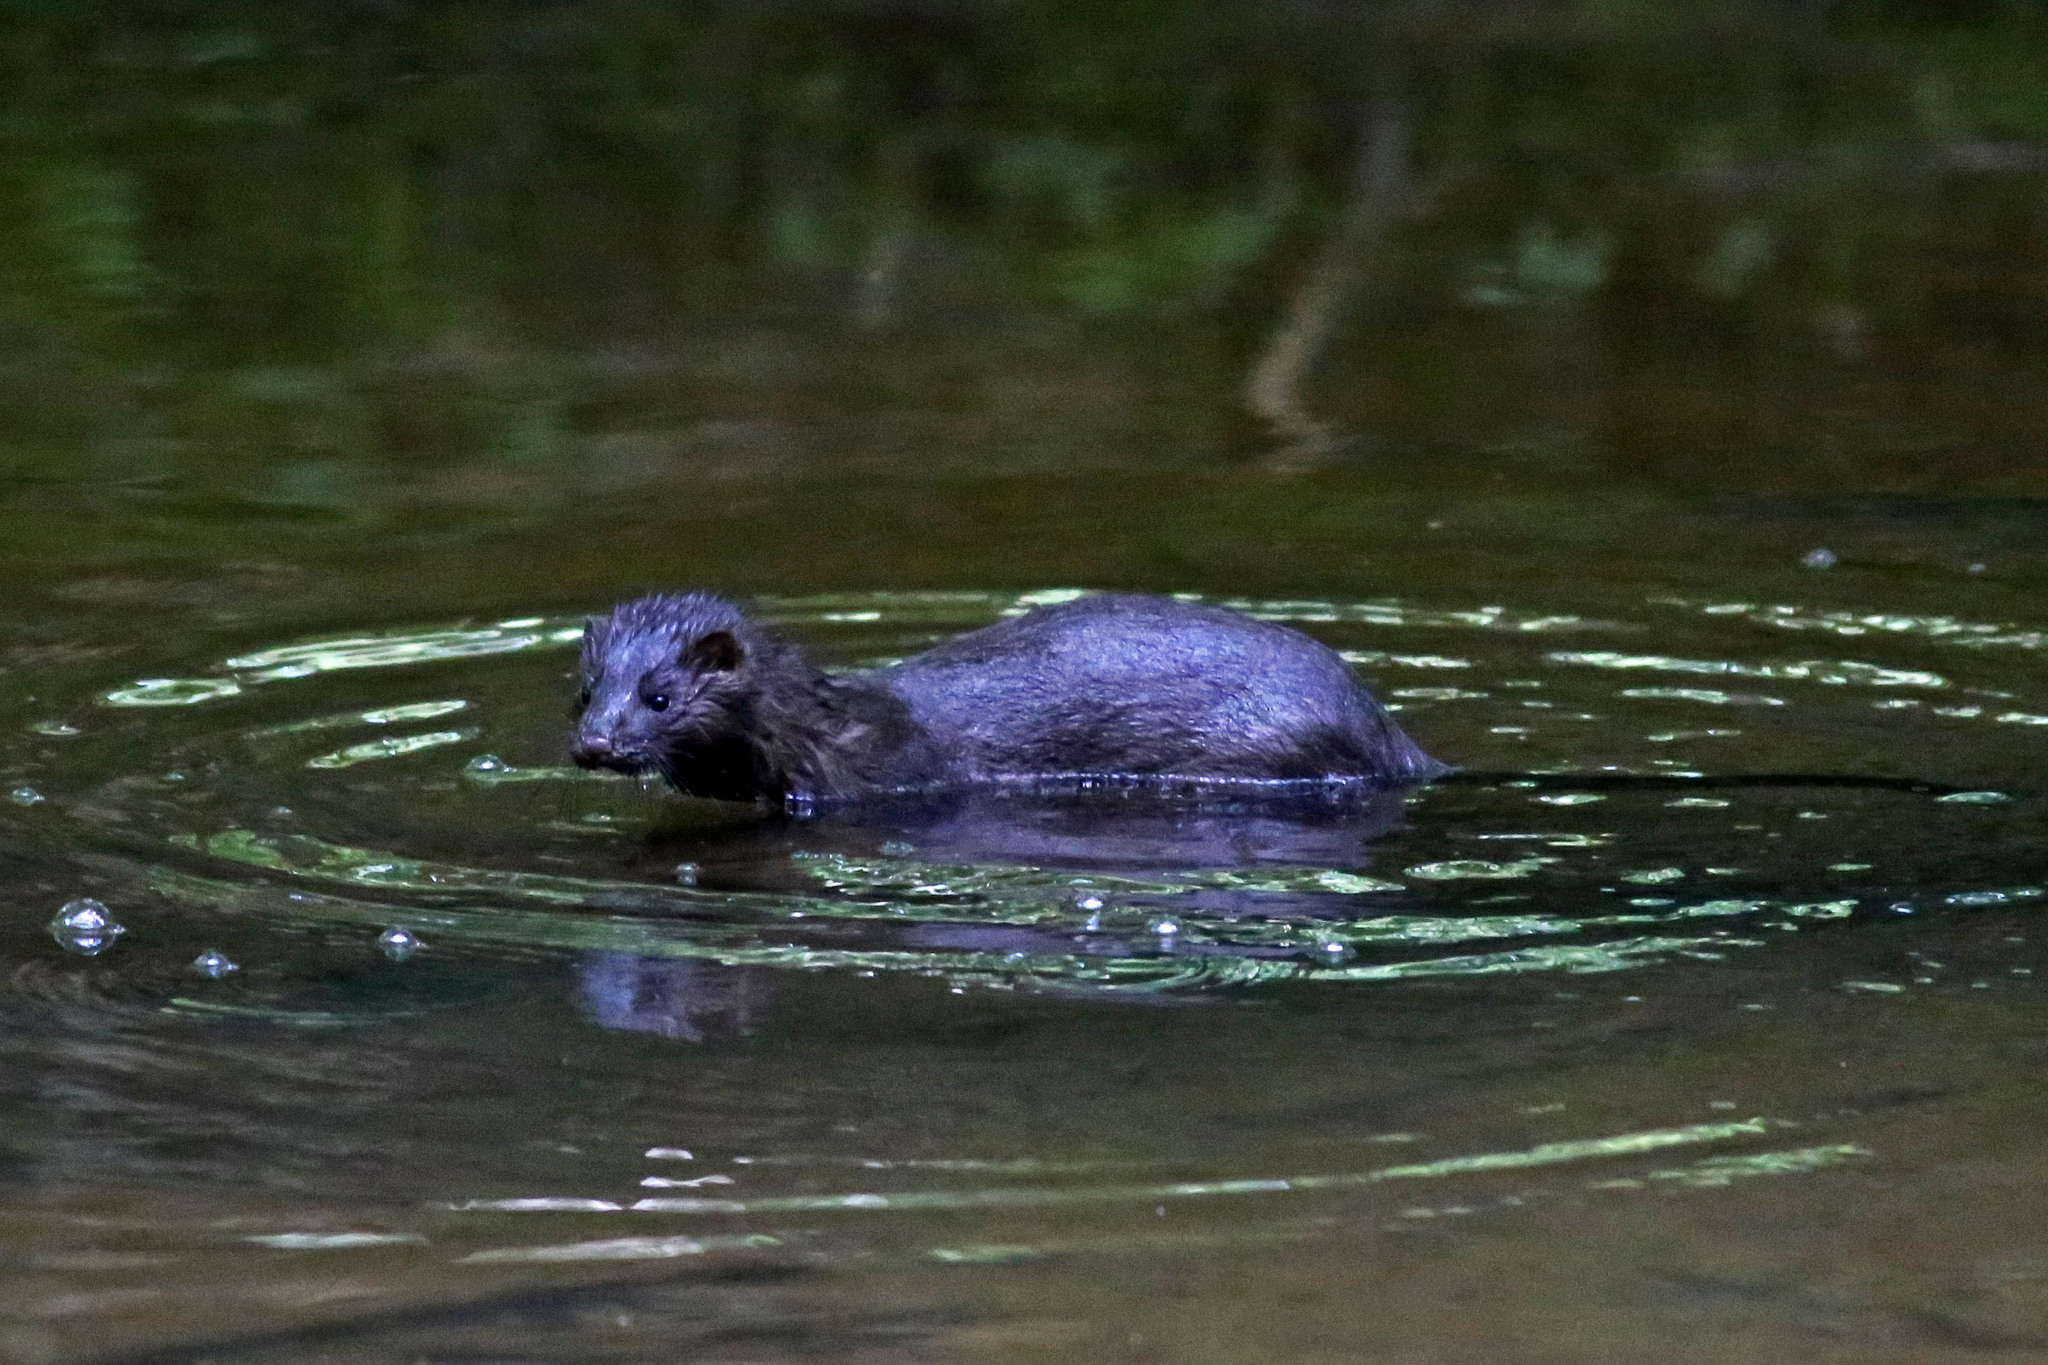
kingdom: Animalia
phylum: Chordata
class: Mammalia
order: Carnivora
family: Mustelidae
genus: Mustela
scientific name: Mustela
